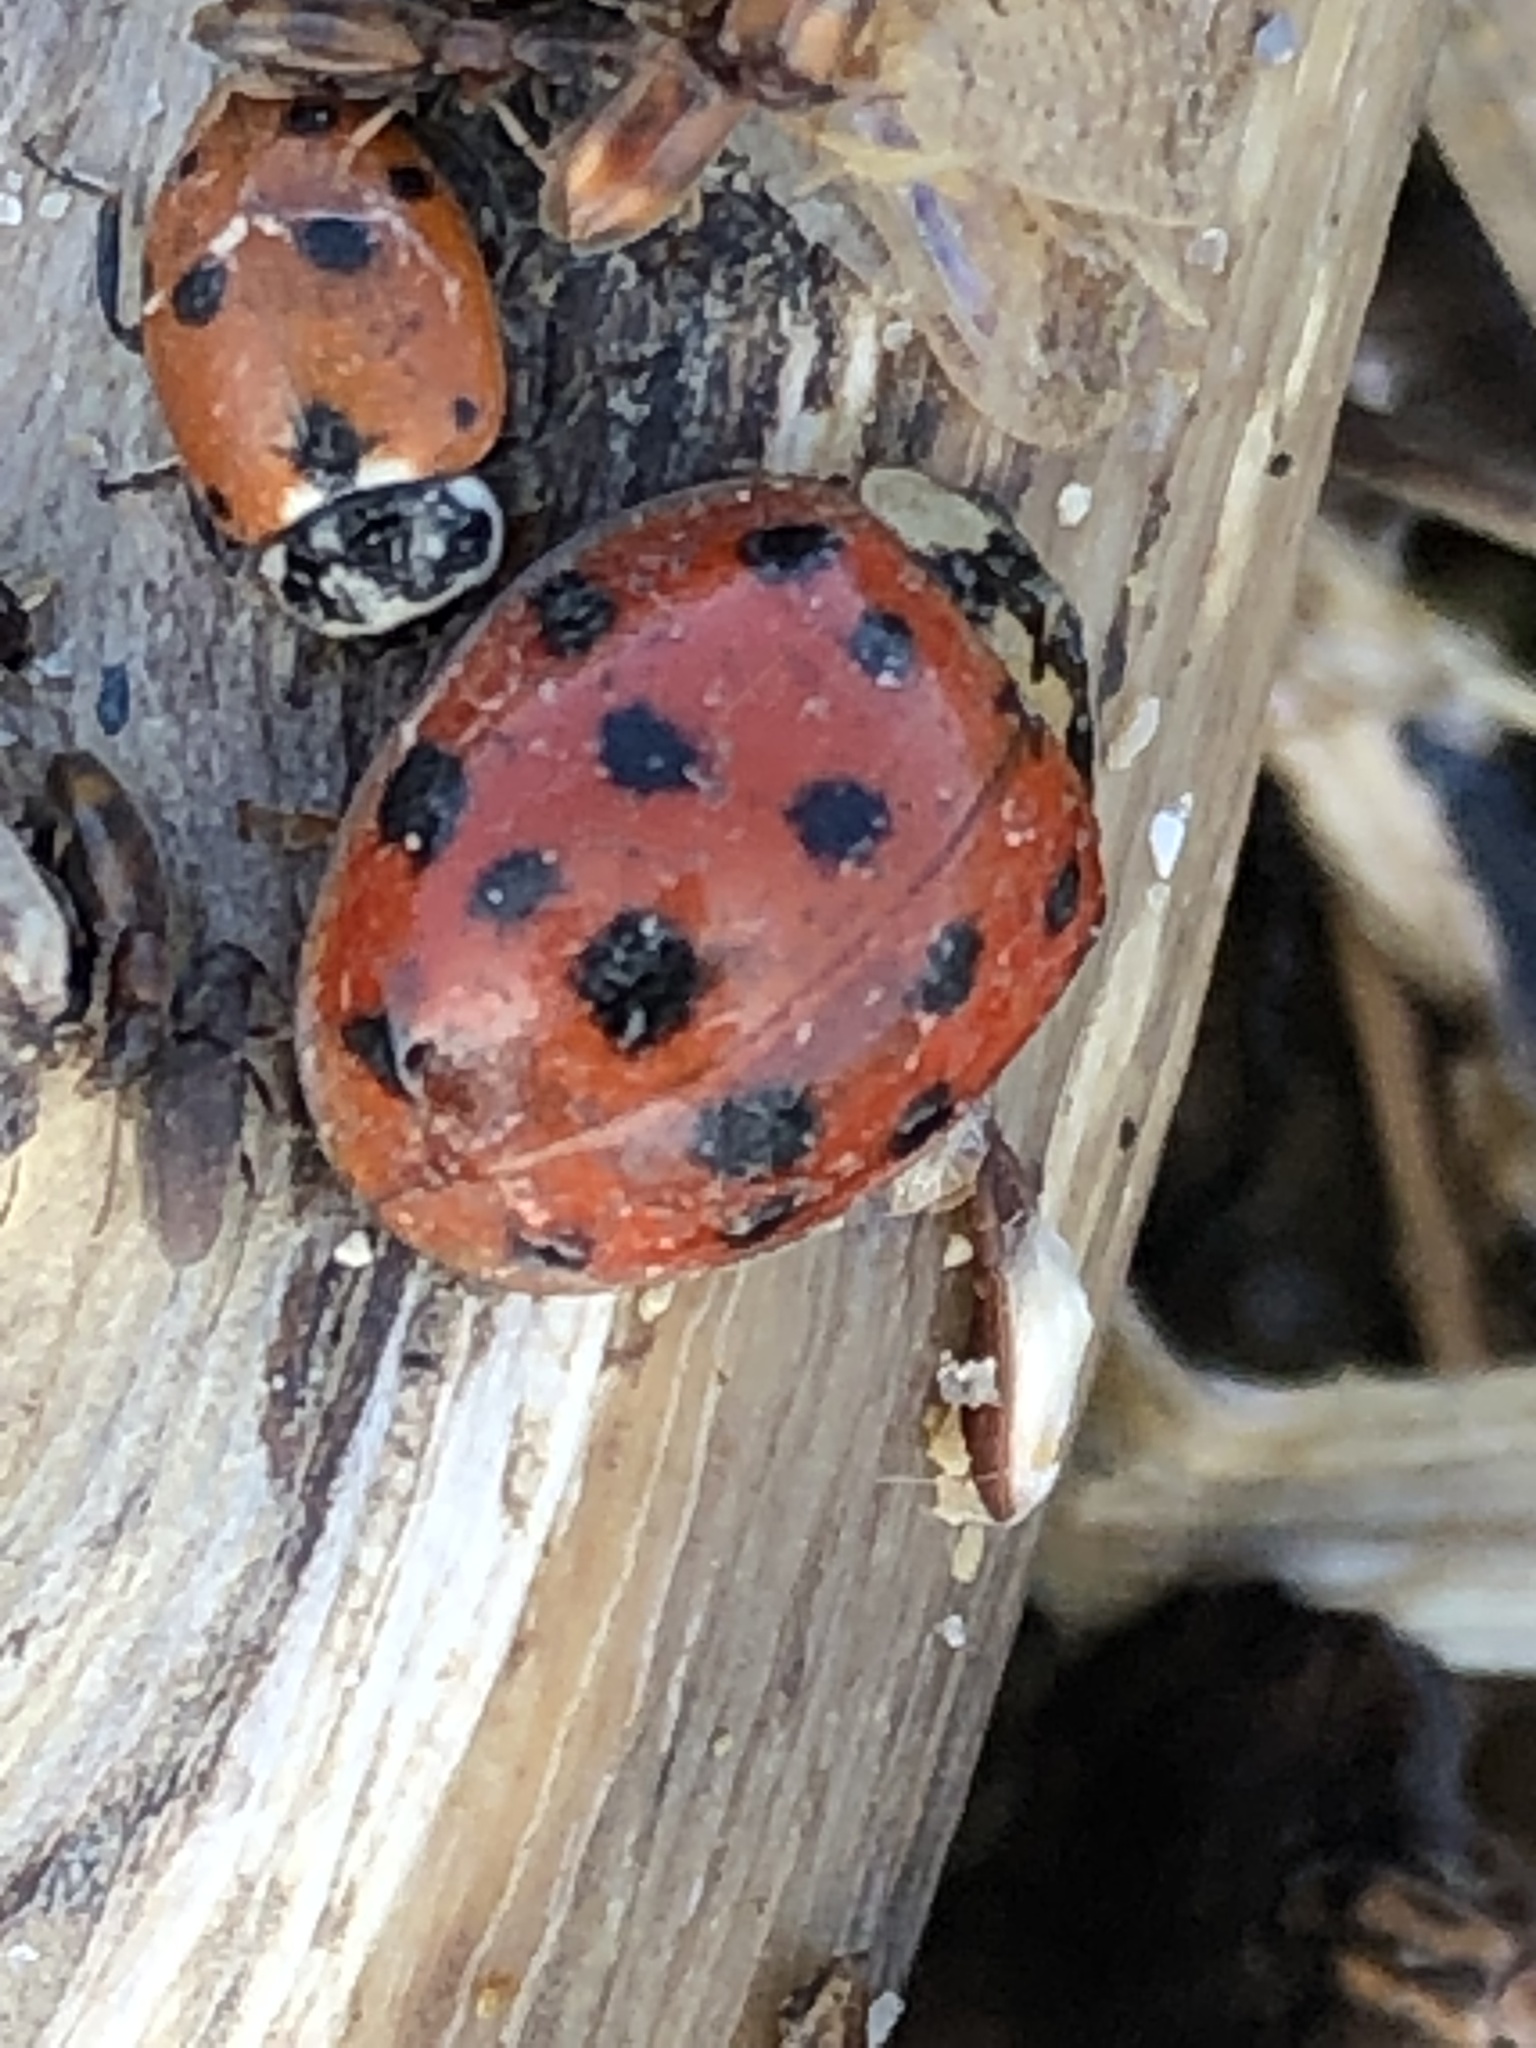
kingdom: Animalia
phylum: Arthropoda
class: Insecta
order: Coleoptera
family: Coccinellidae
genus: Harmonia
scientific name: Harmonia axyridis
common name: Harlequin ladybird
